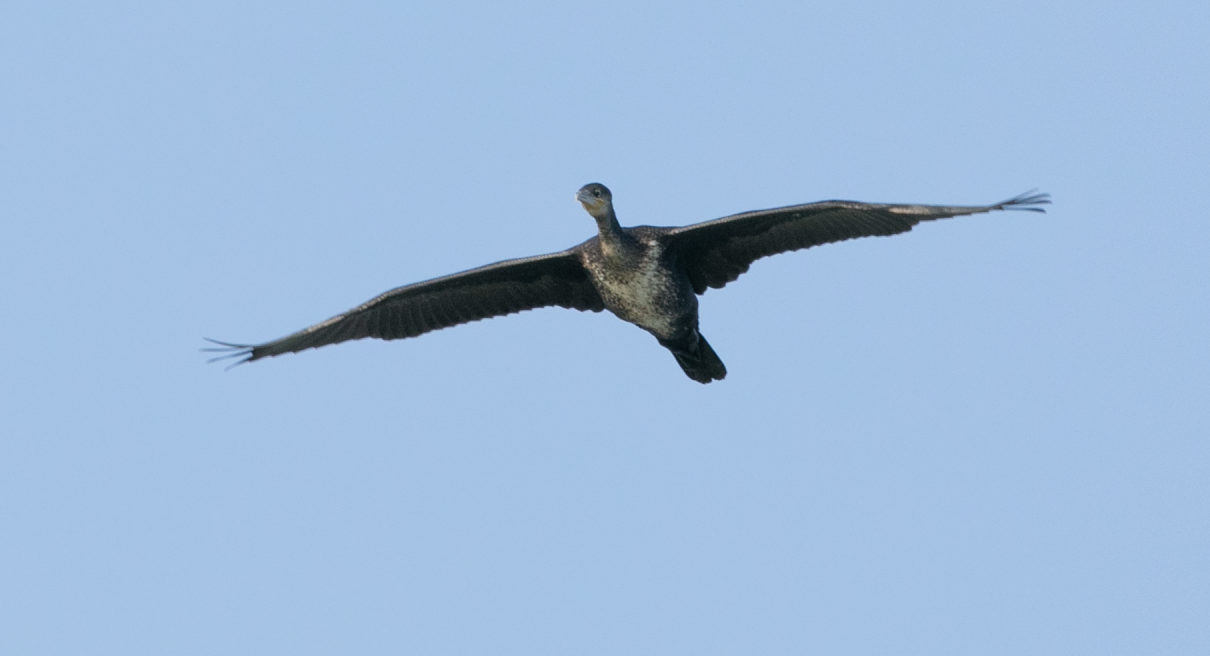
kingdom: Animalia
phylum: Chordata
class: Aves
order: Suliformes
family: Phalacrocoracidae
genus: Phalacrocorax
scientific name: Phalacrocorax carbo
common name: Great cormorant
